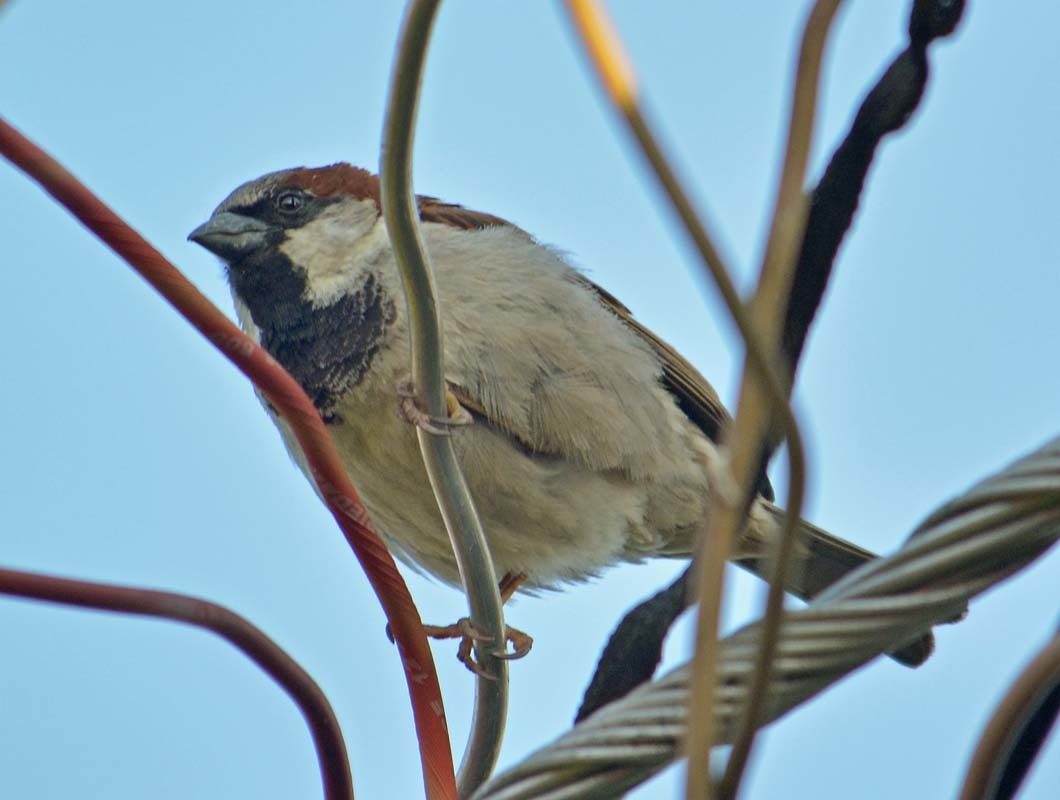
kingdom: Animalia
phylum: Chordata
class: Aves
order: Passeriformes
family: Passeridae
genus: Passer
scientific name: Passer domesticus
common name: House sparrow
